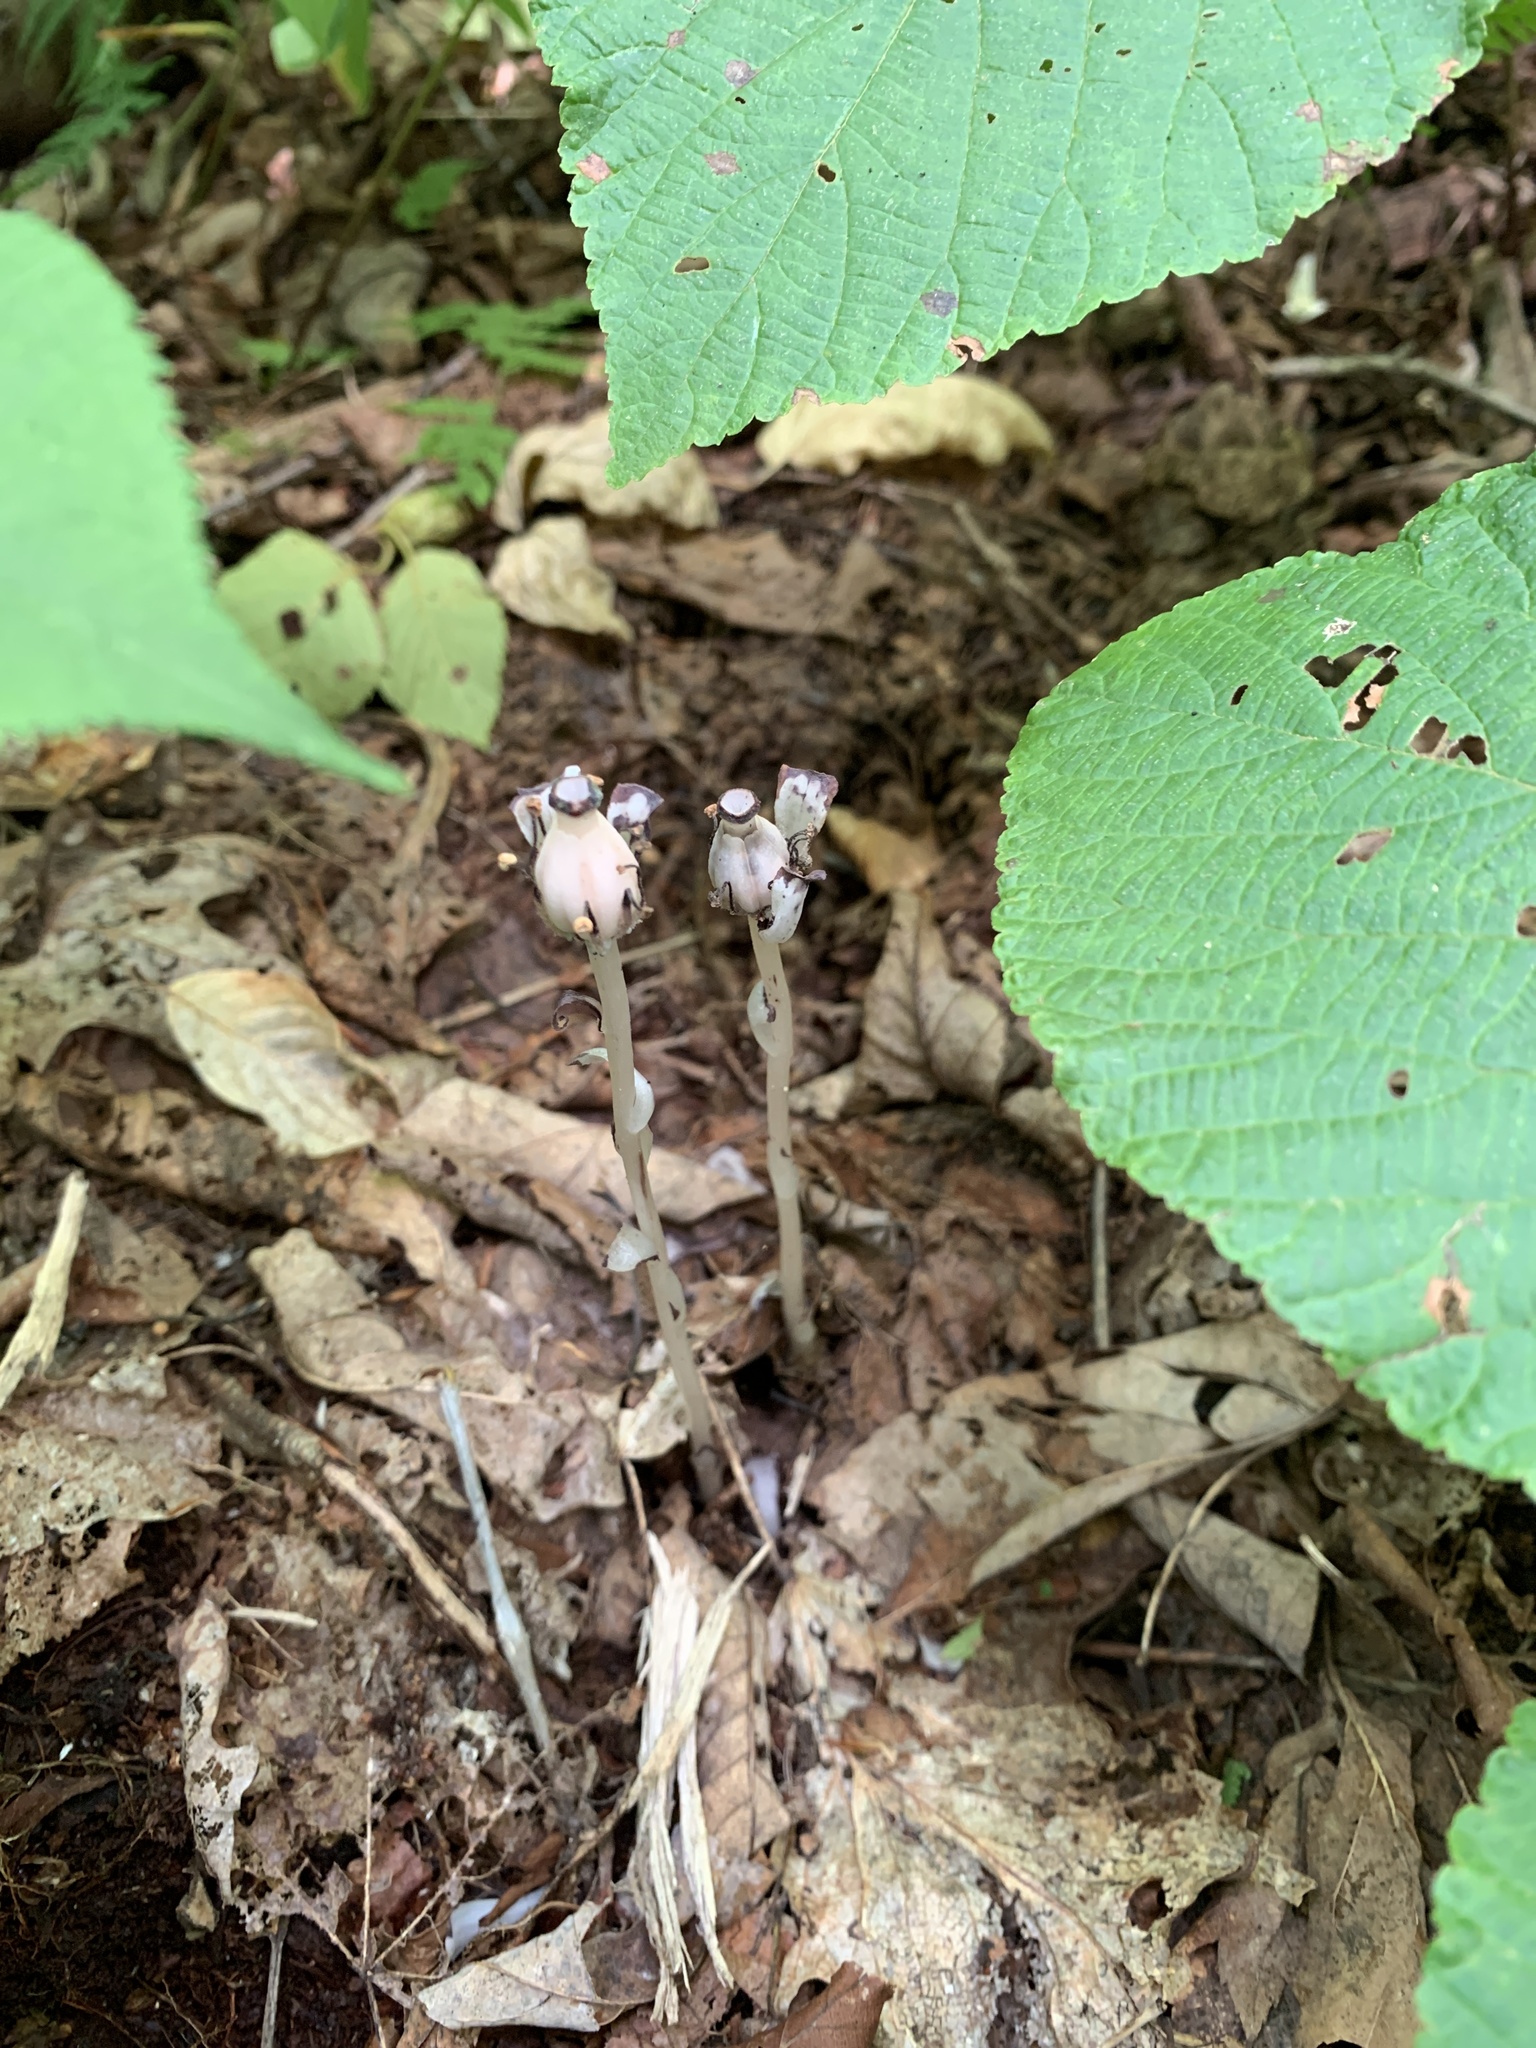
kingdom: Plantae
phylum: Tracheophyta
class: Magnoliopsida
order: Ericales
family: Ericaceae
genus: Monotropa
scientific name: Monotropa uniflora
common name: Convulsion root
